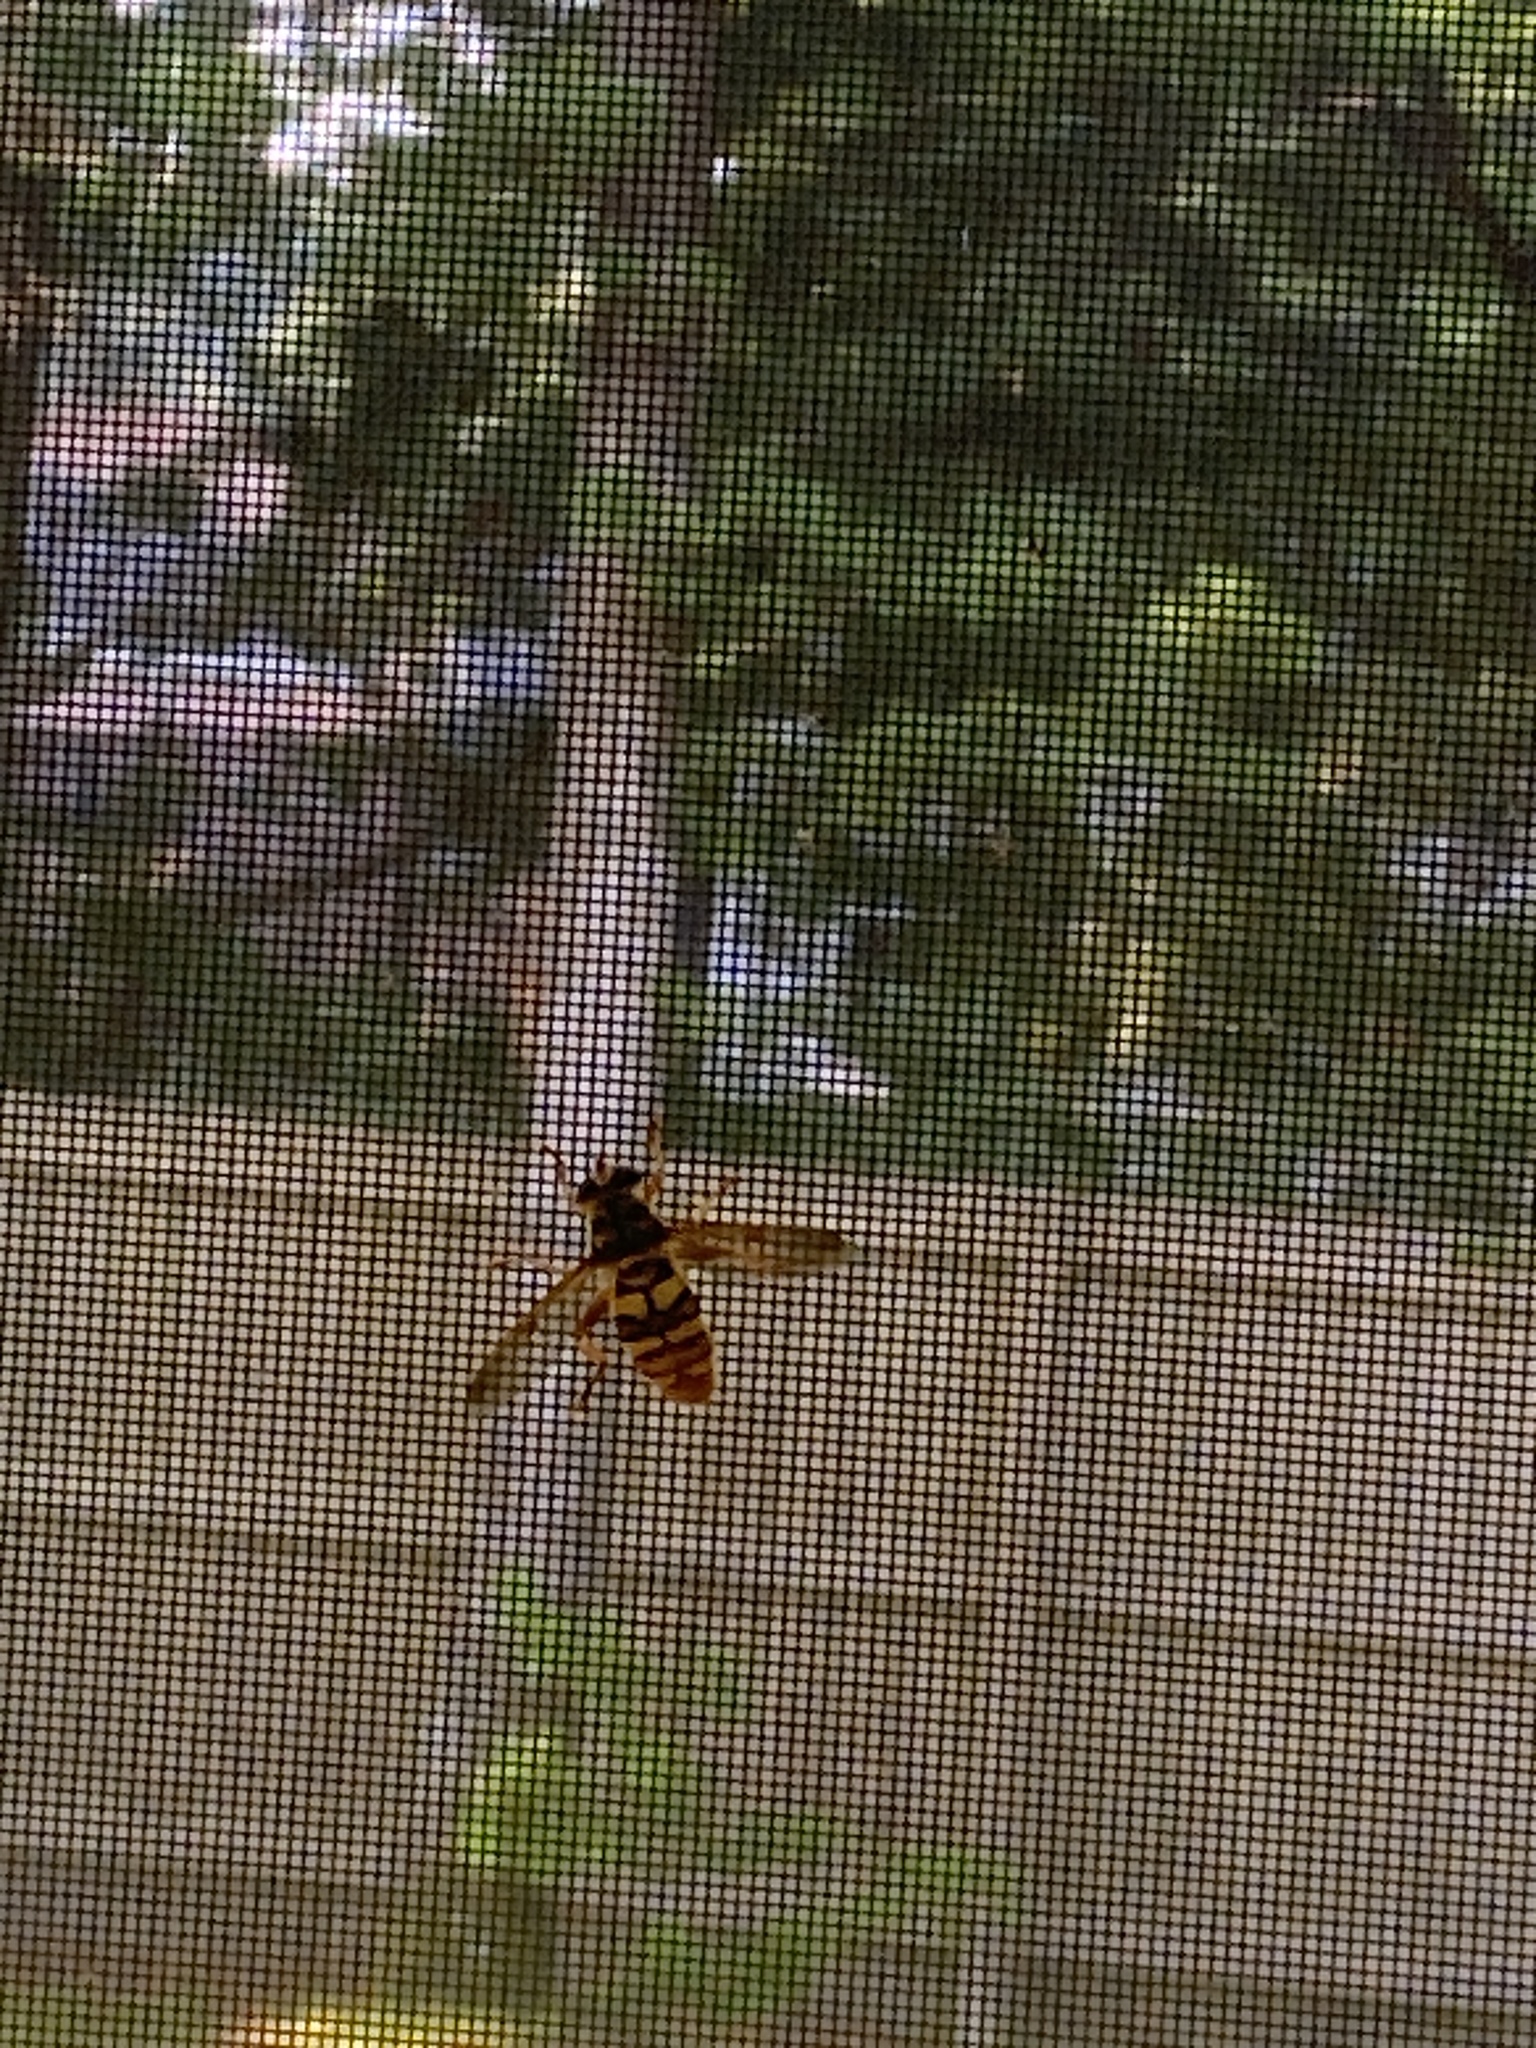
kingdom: Animalia
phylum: Arthropoda
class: Insecta
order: Diptera
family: Syrphidae
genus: Milesia
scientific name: Milesia virginiensis
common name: Virginia giant
